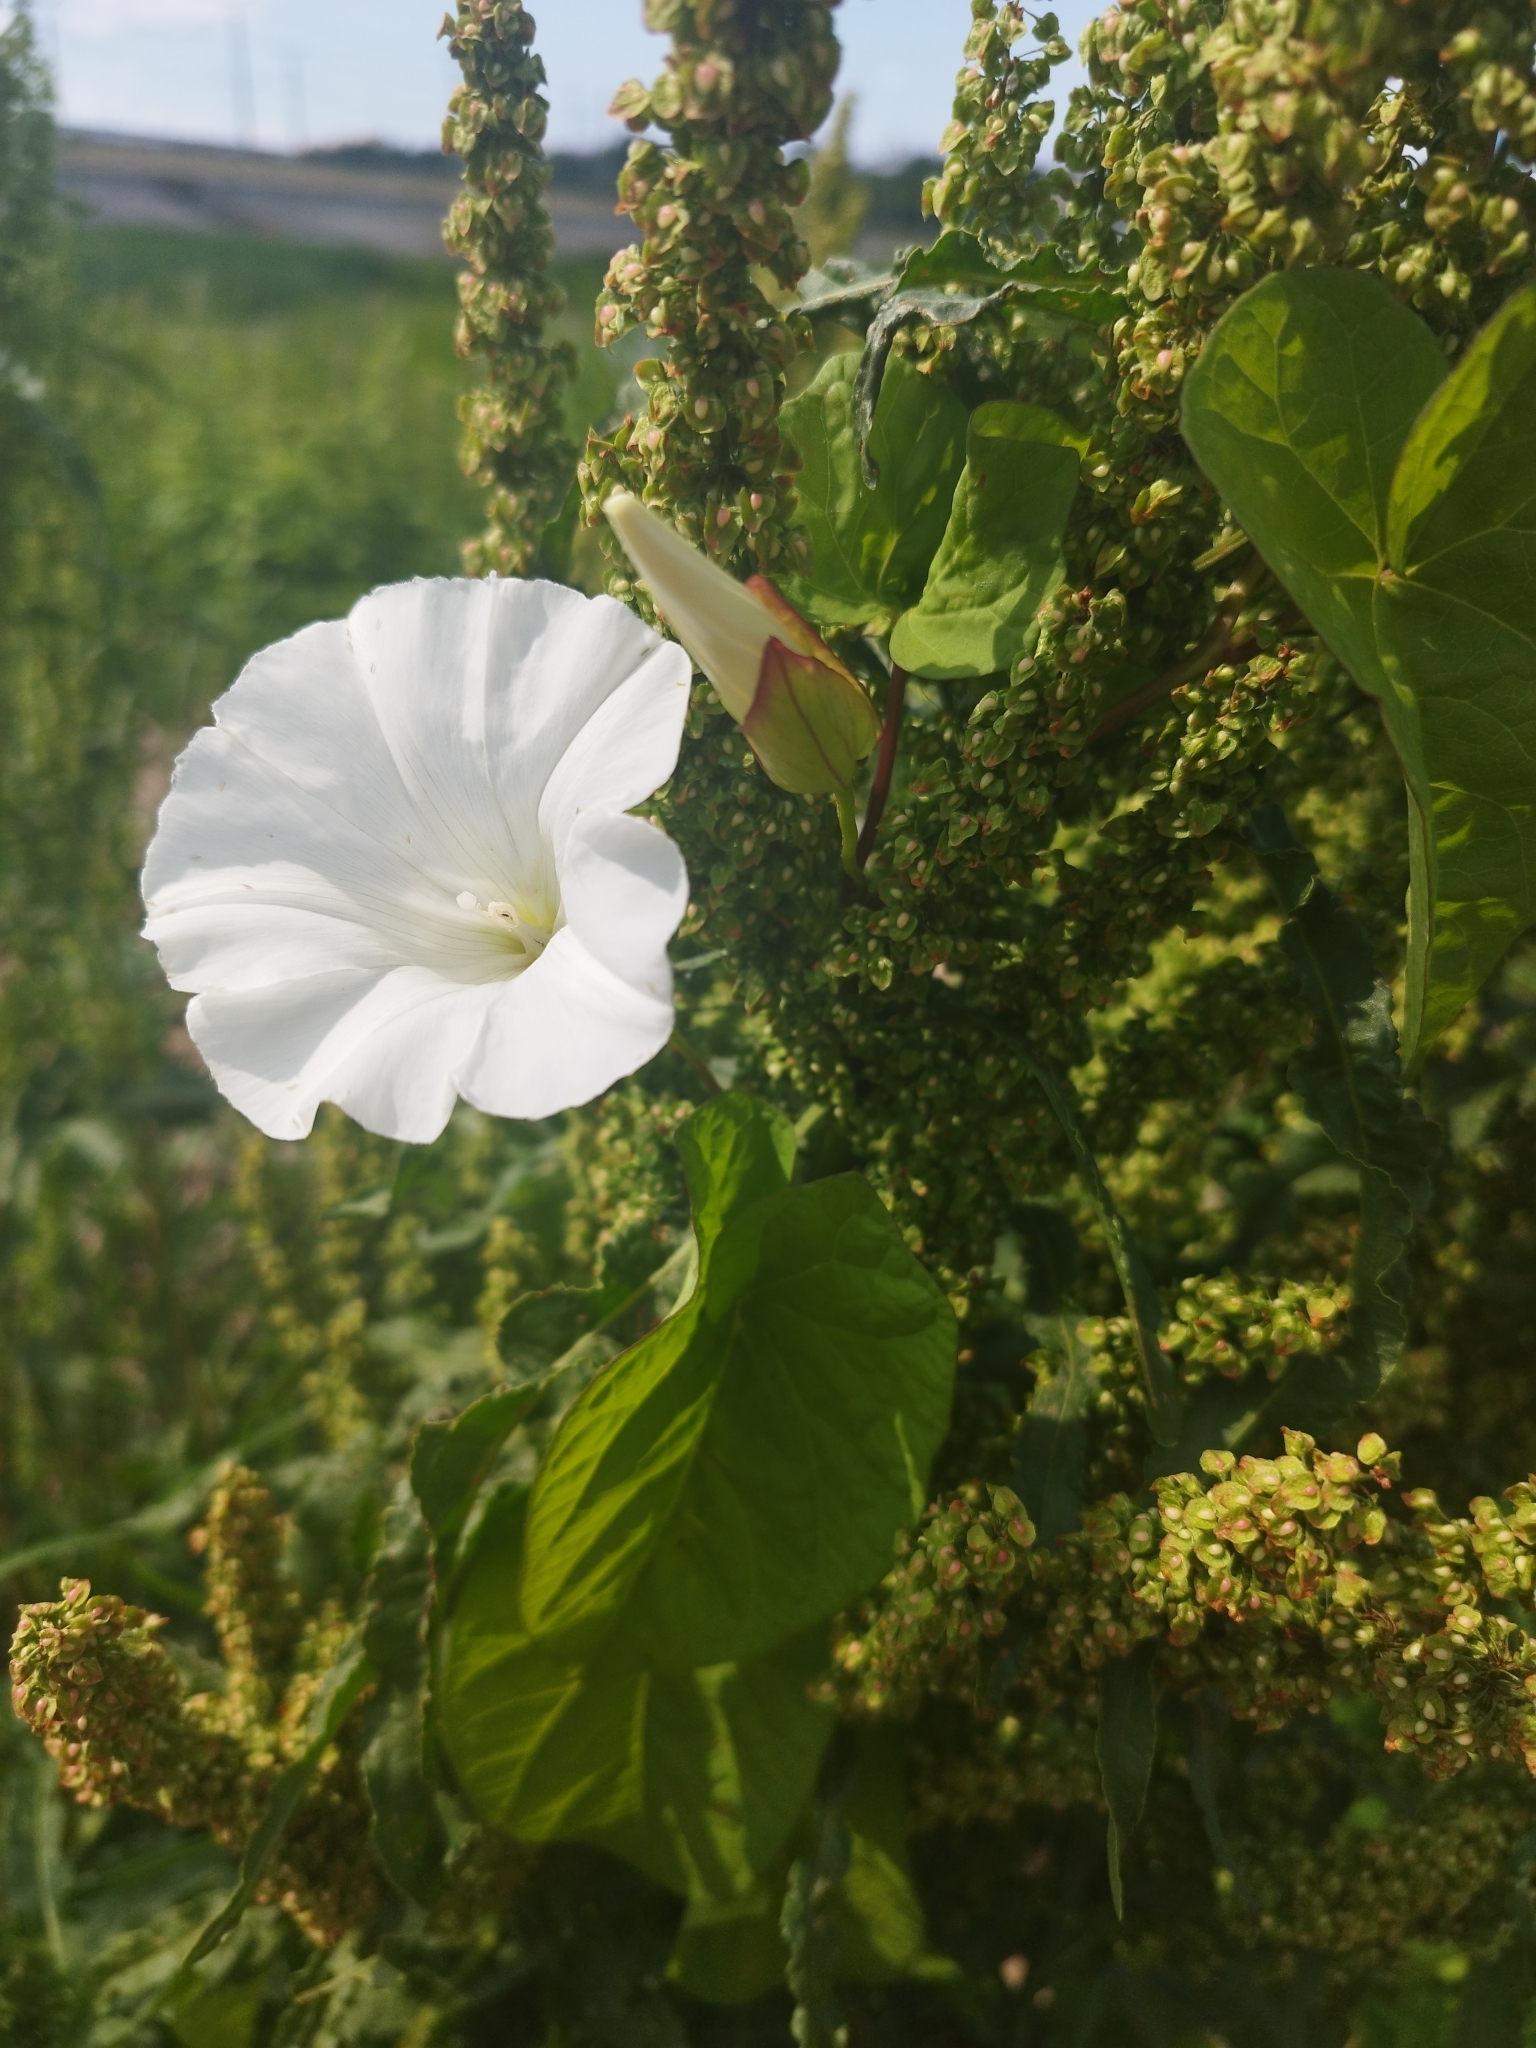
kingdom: Plantae
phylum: Tracheophyta
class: Magnoliopsida
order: Solanales
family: Convolvulaceae
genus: Calystegia
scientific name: Calystegia sepium
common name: Hedge bindweed
